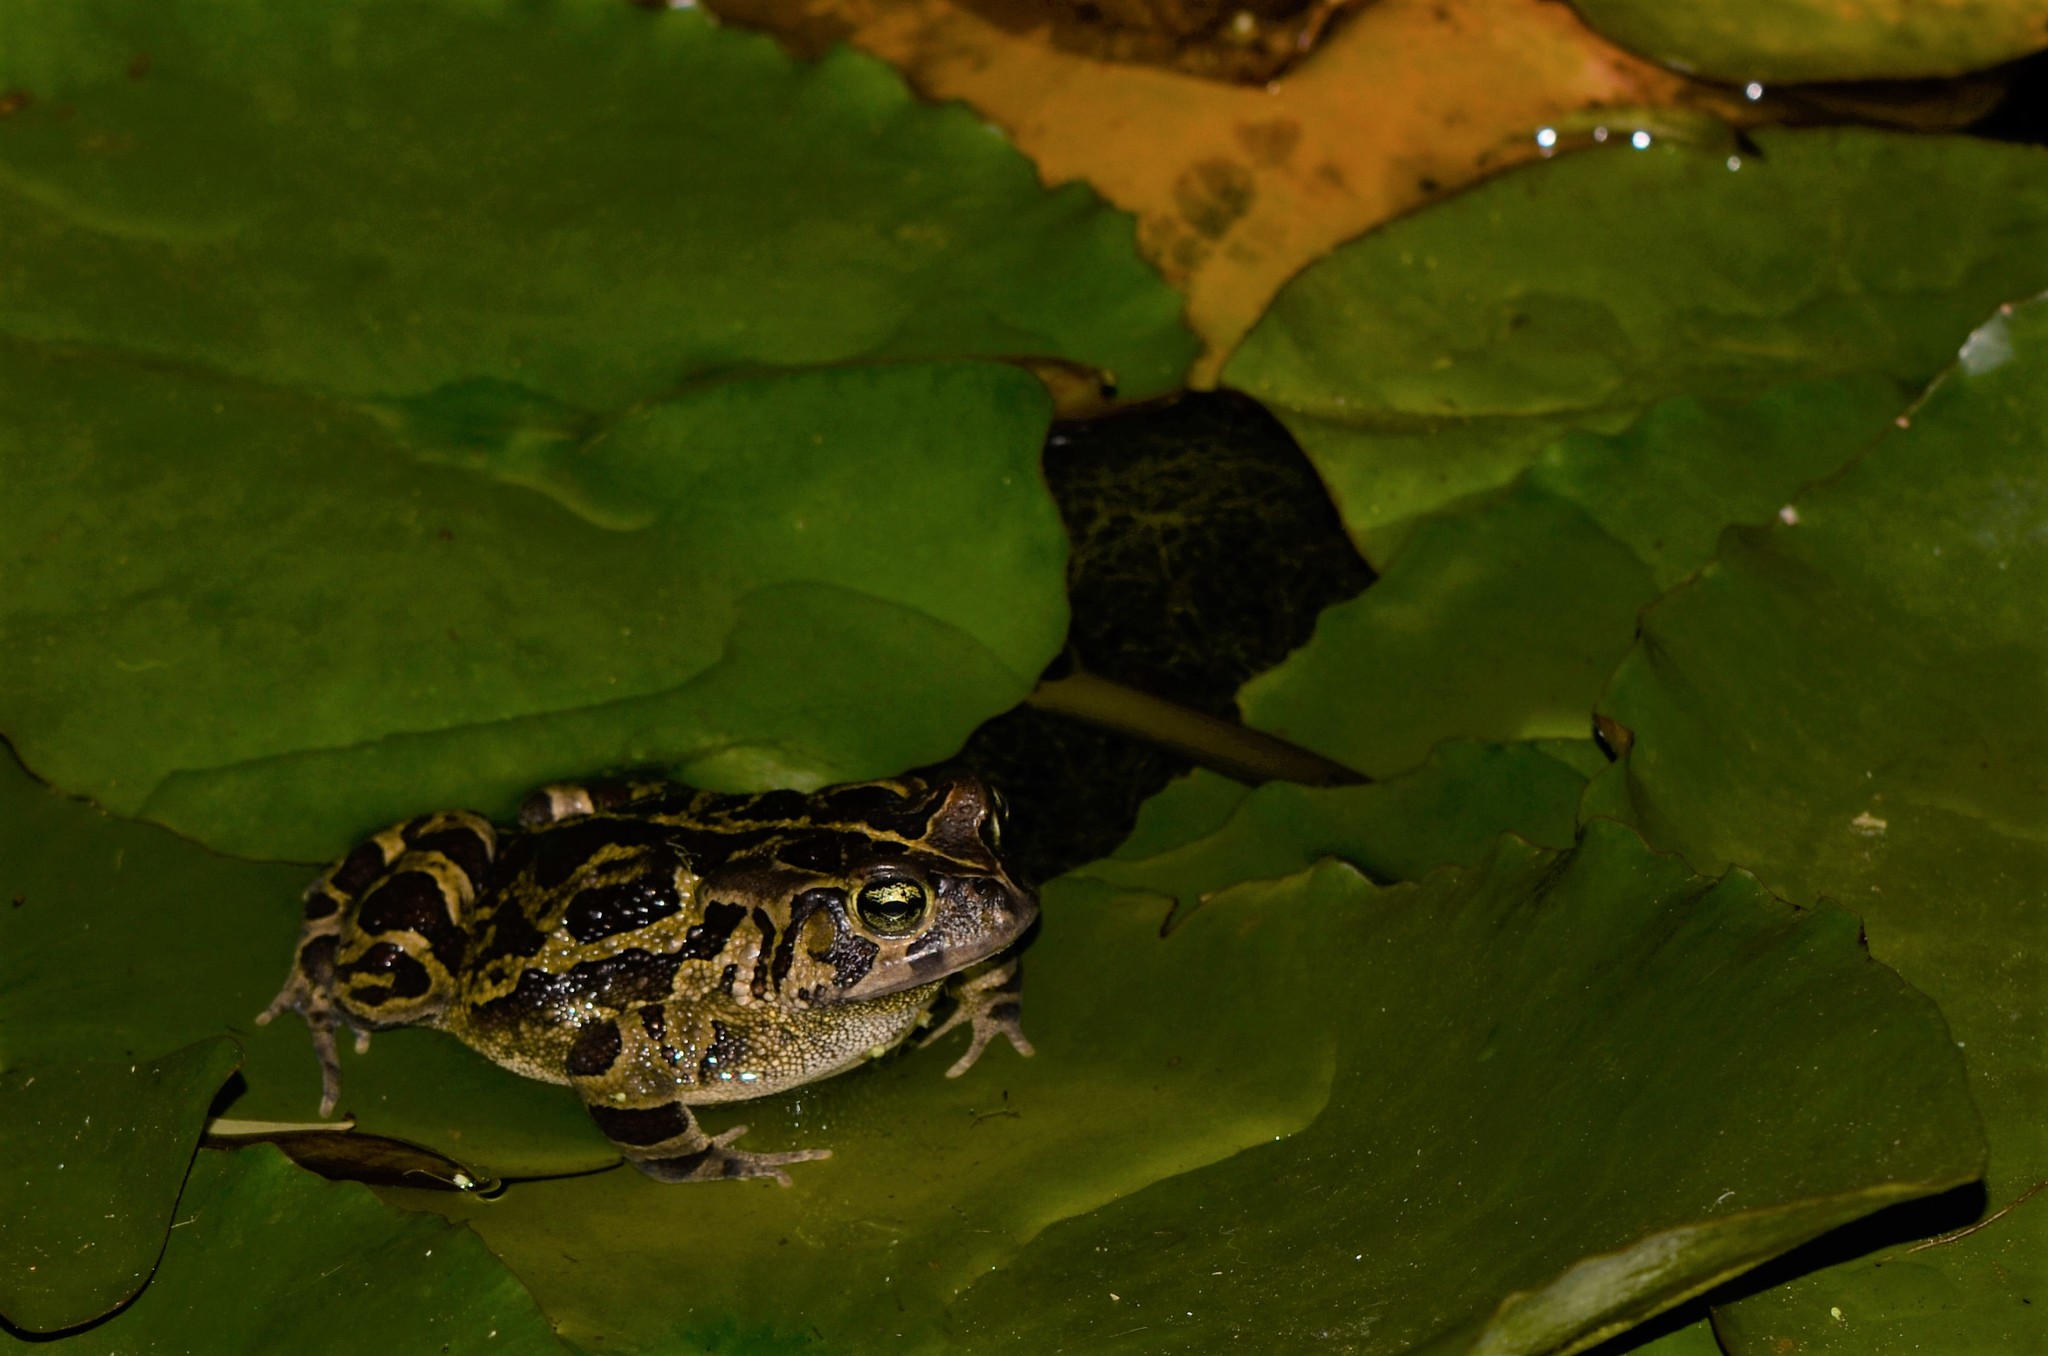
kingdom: Animalia
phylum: Chordata
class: Amphibia
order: Anura
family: Bufonidae
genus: Sclerophrys
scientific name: Sclerophrys pantherina
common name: Panther toad
